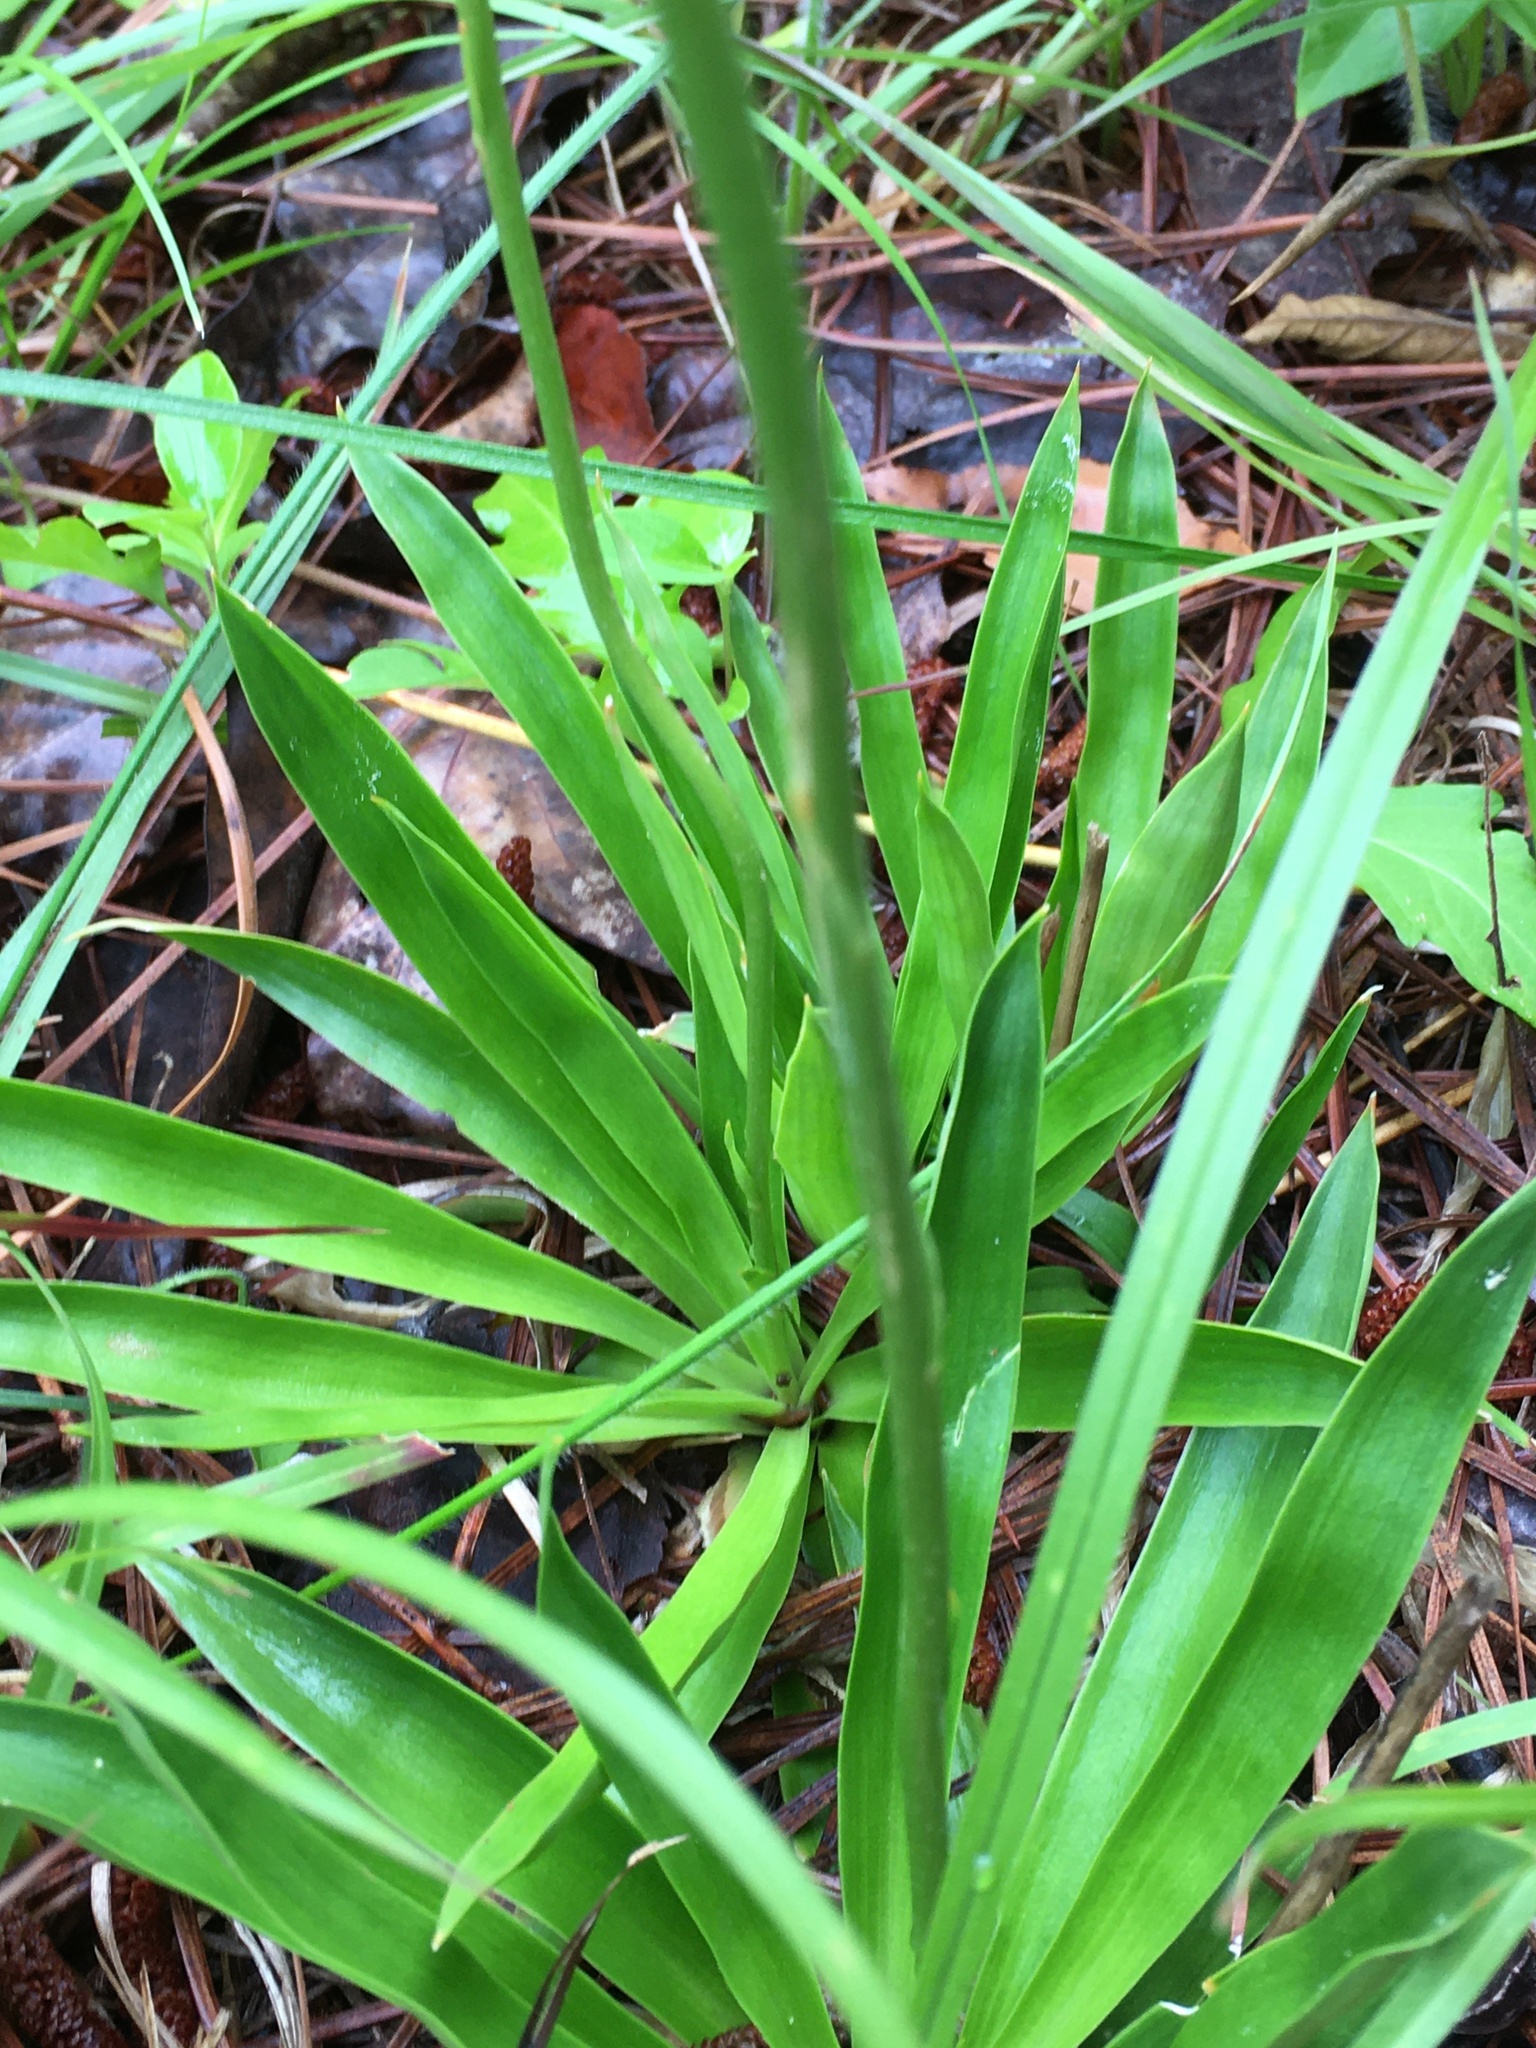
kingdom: Plantae
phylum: Tracheophyta
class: Liliopsida
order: Dioscoreales
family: Nartheciaceae
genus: Aletris
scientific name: Aletris farinosa
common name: Colicroot
